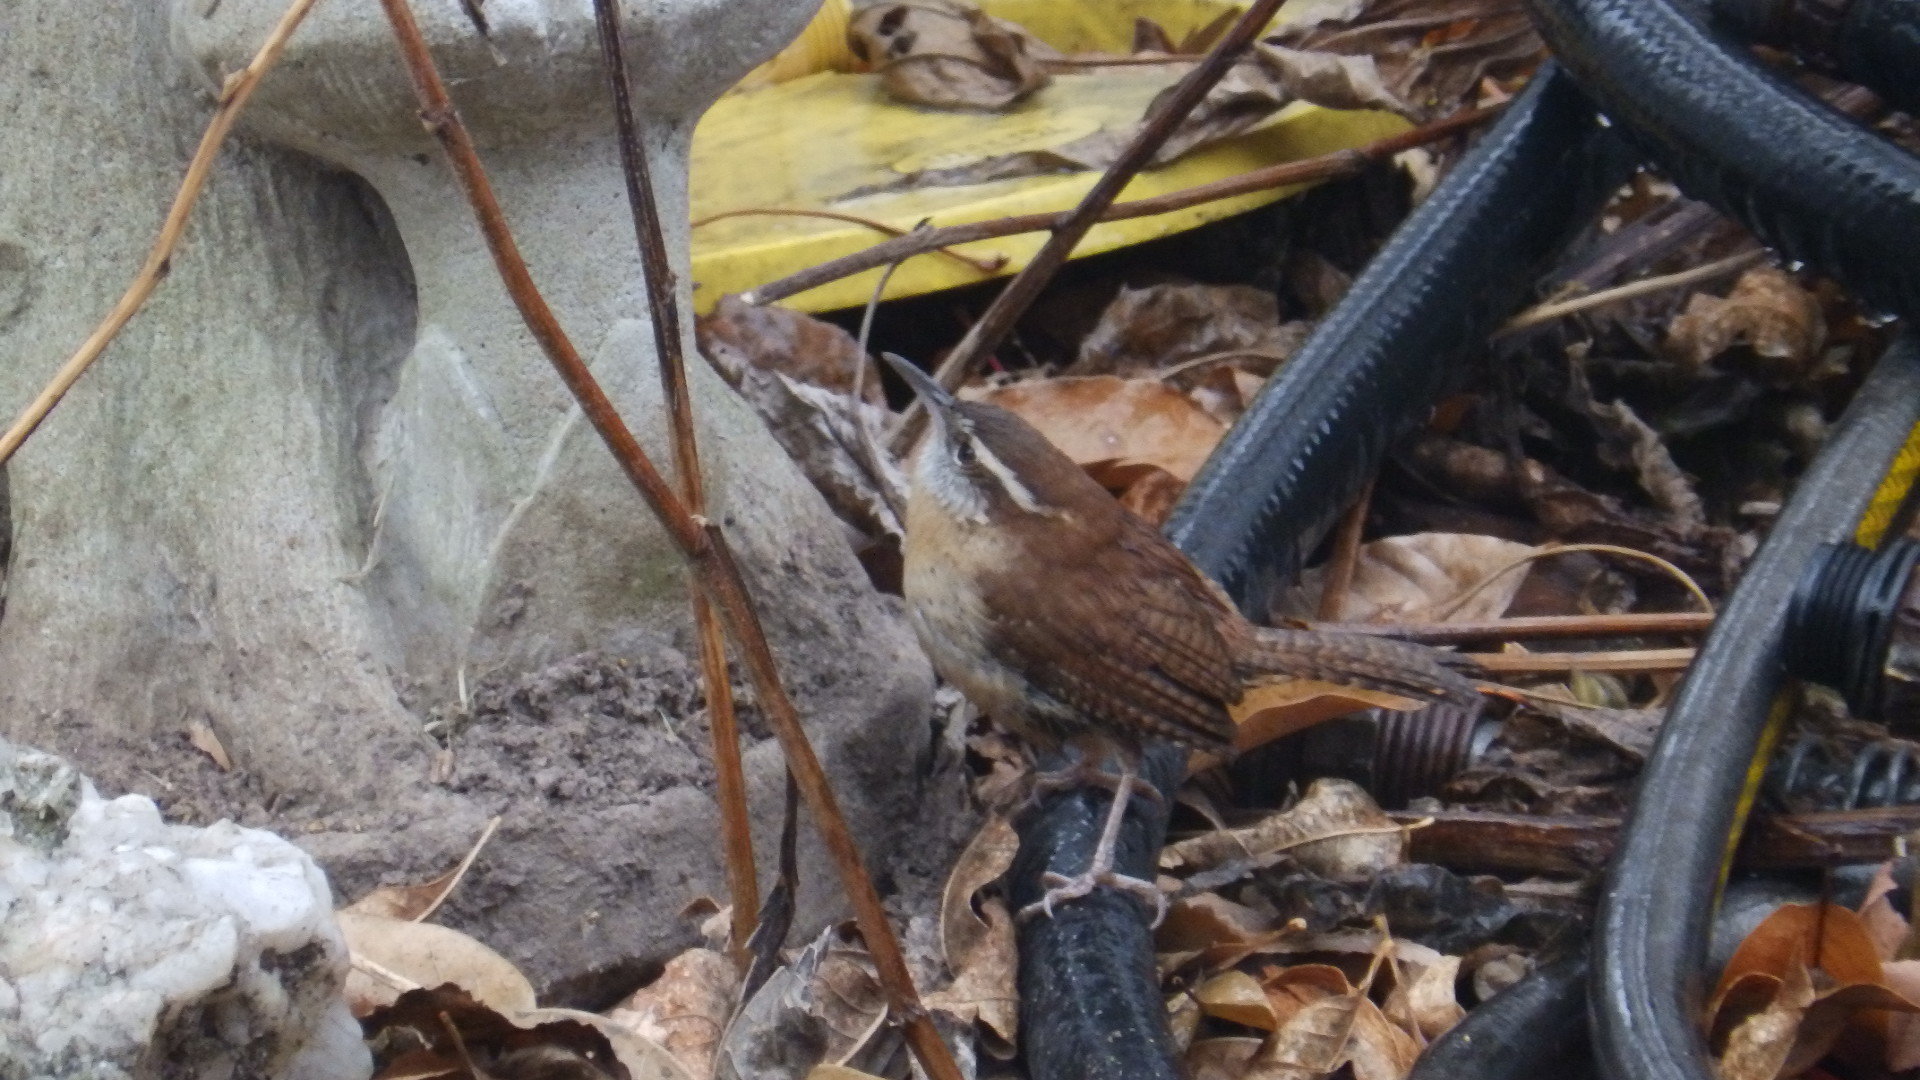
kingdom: Animalia
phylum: Chordata
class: Aves
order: Passeriformes
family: Troglodytidae
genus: Thryothorus
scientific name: Thryothorus ludovicianus
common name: Carolina wren
